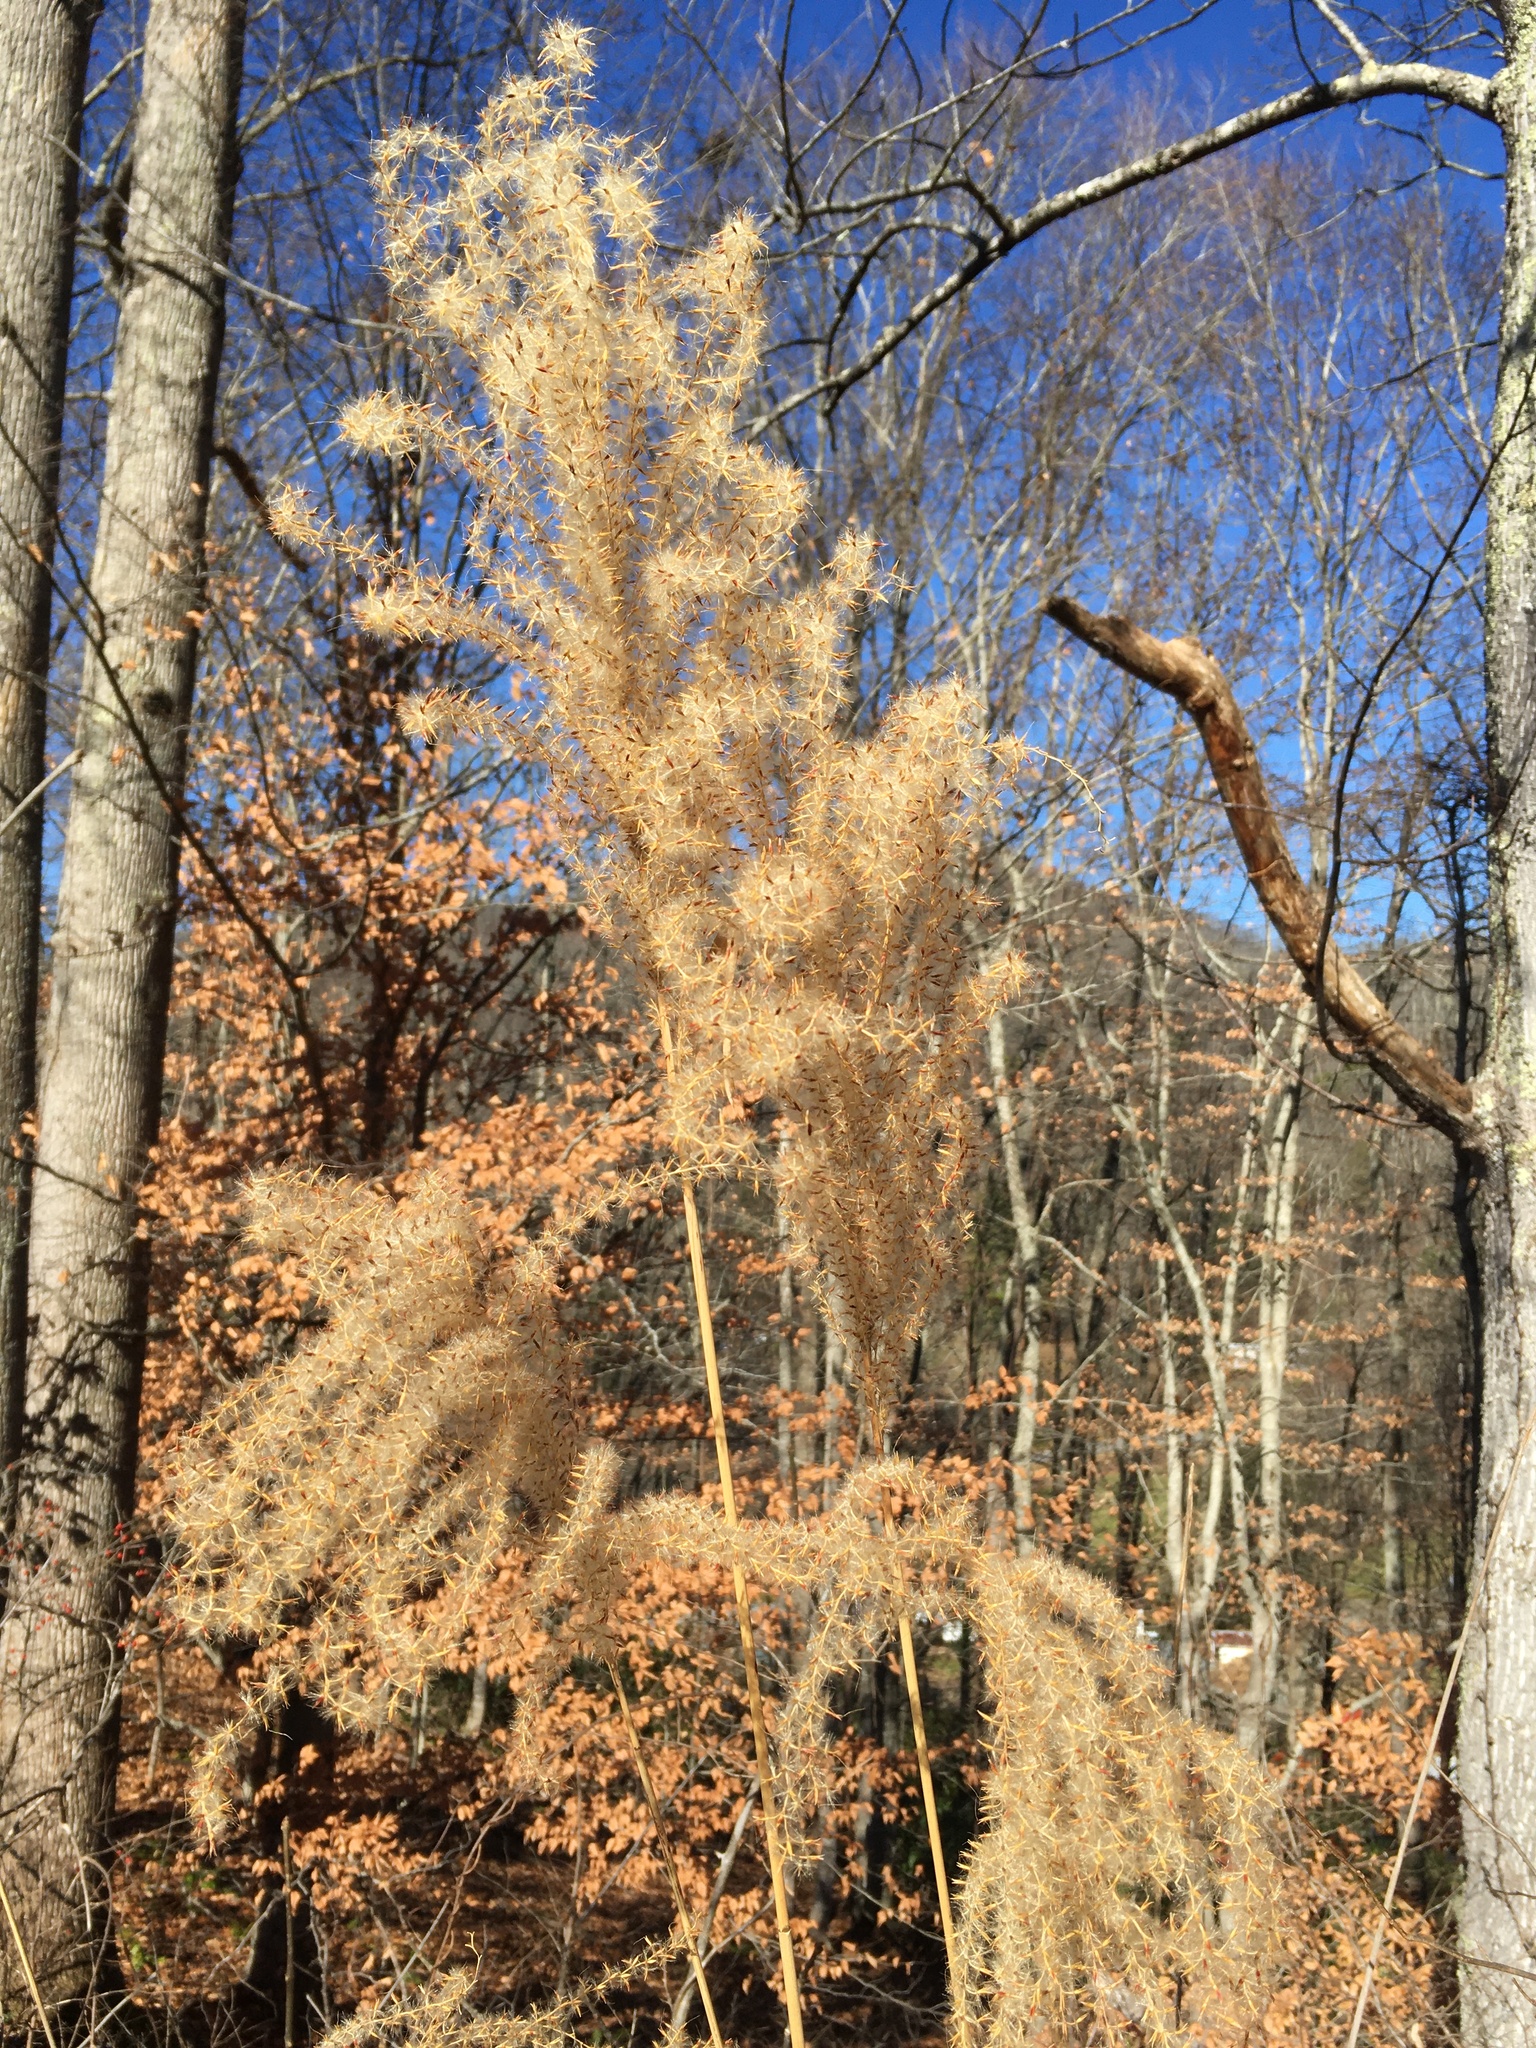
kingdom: Plantae
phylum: Tracheophyta
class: Liliopsida
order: Poales
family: Poaceae
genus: Miscanthus
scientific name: Miscanthus sinensis
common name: Chinese silvergrass
